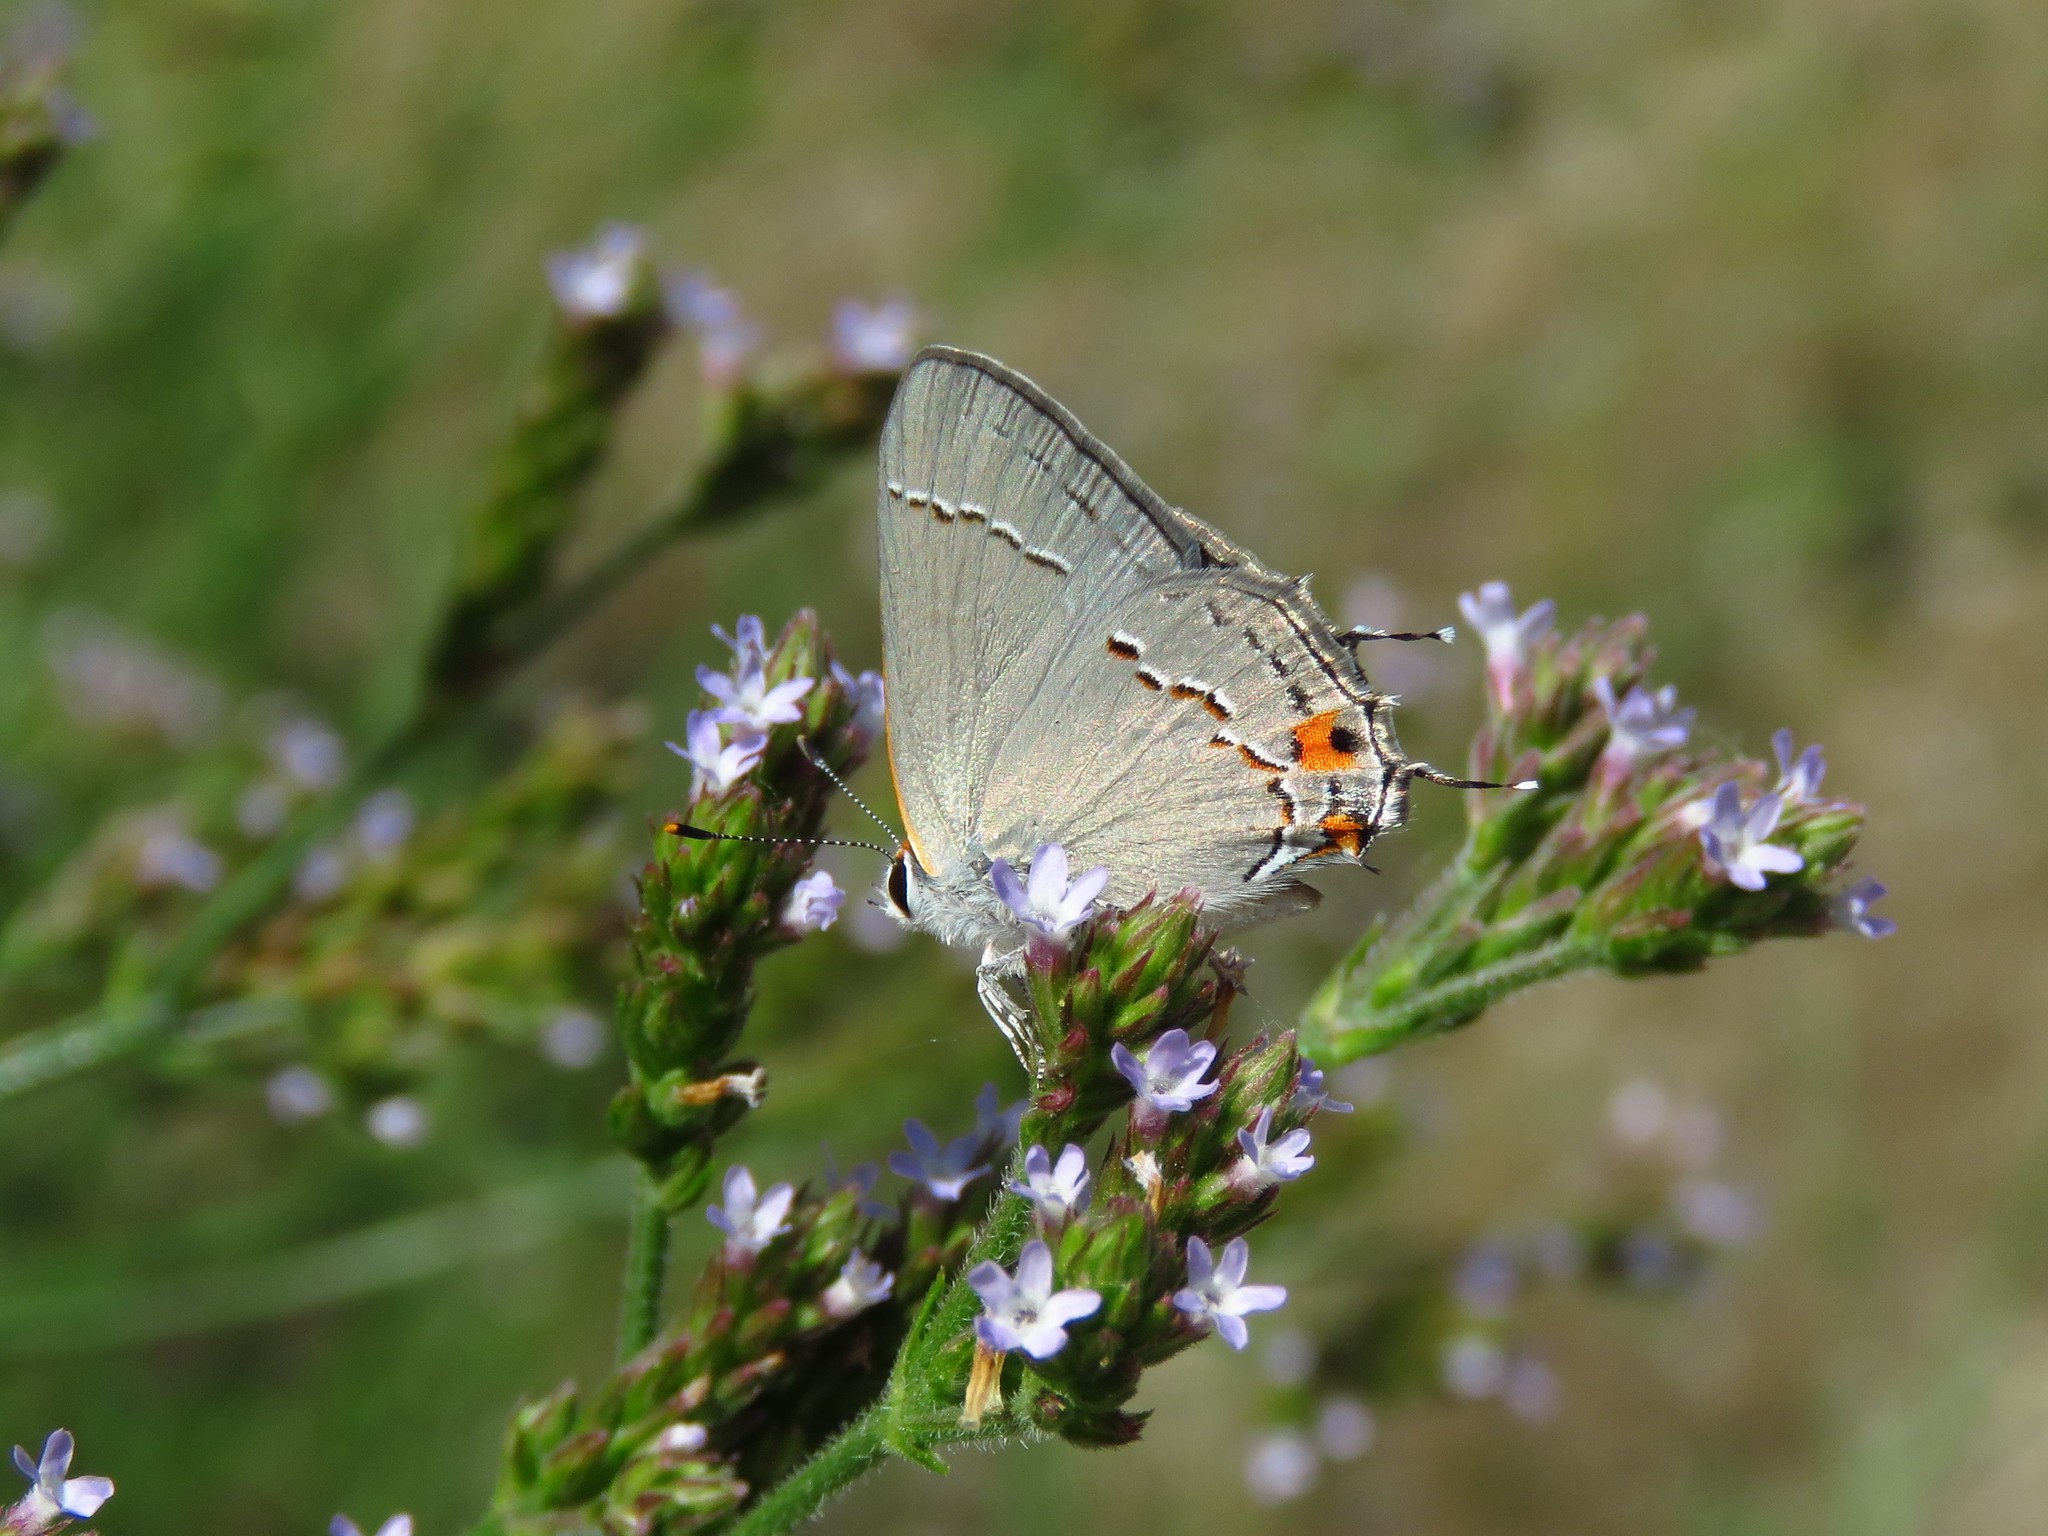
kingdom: Animalia
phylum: Arthropoda
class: Insecta
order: Lepidoptera
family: Lycaenidae
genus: Strymon
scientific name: Strymon melinus
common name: Gray hairstreak
